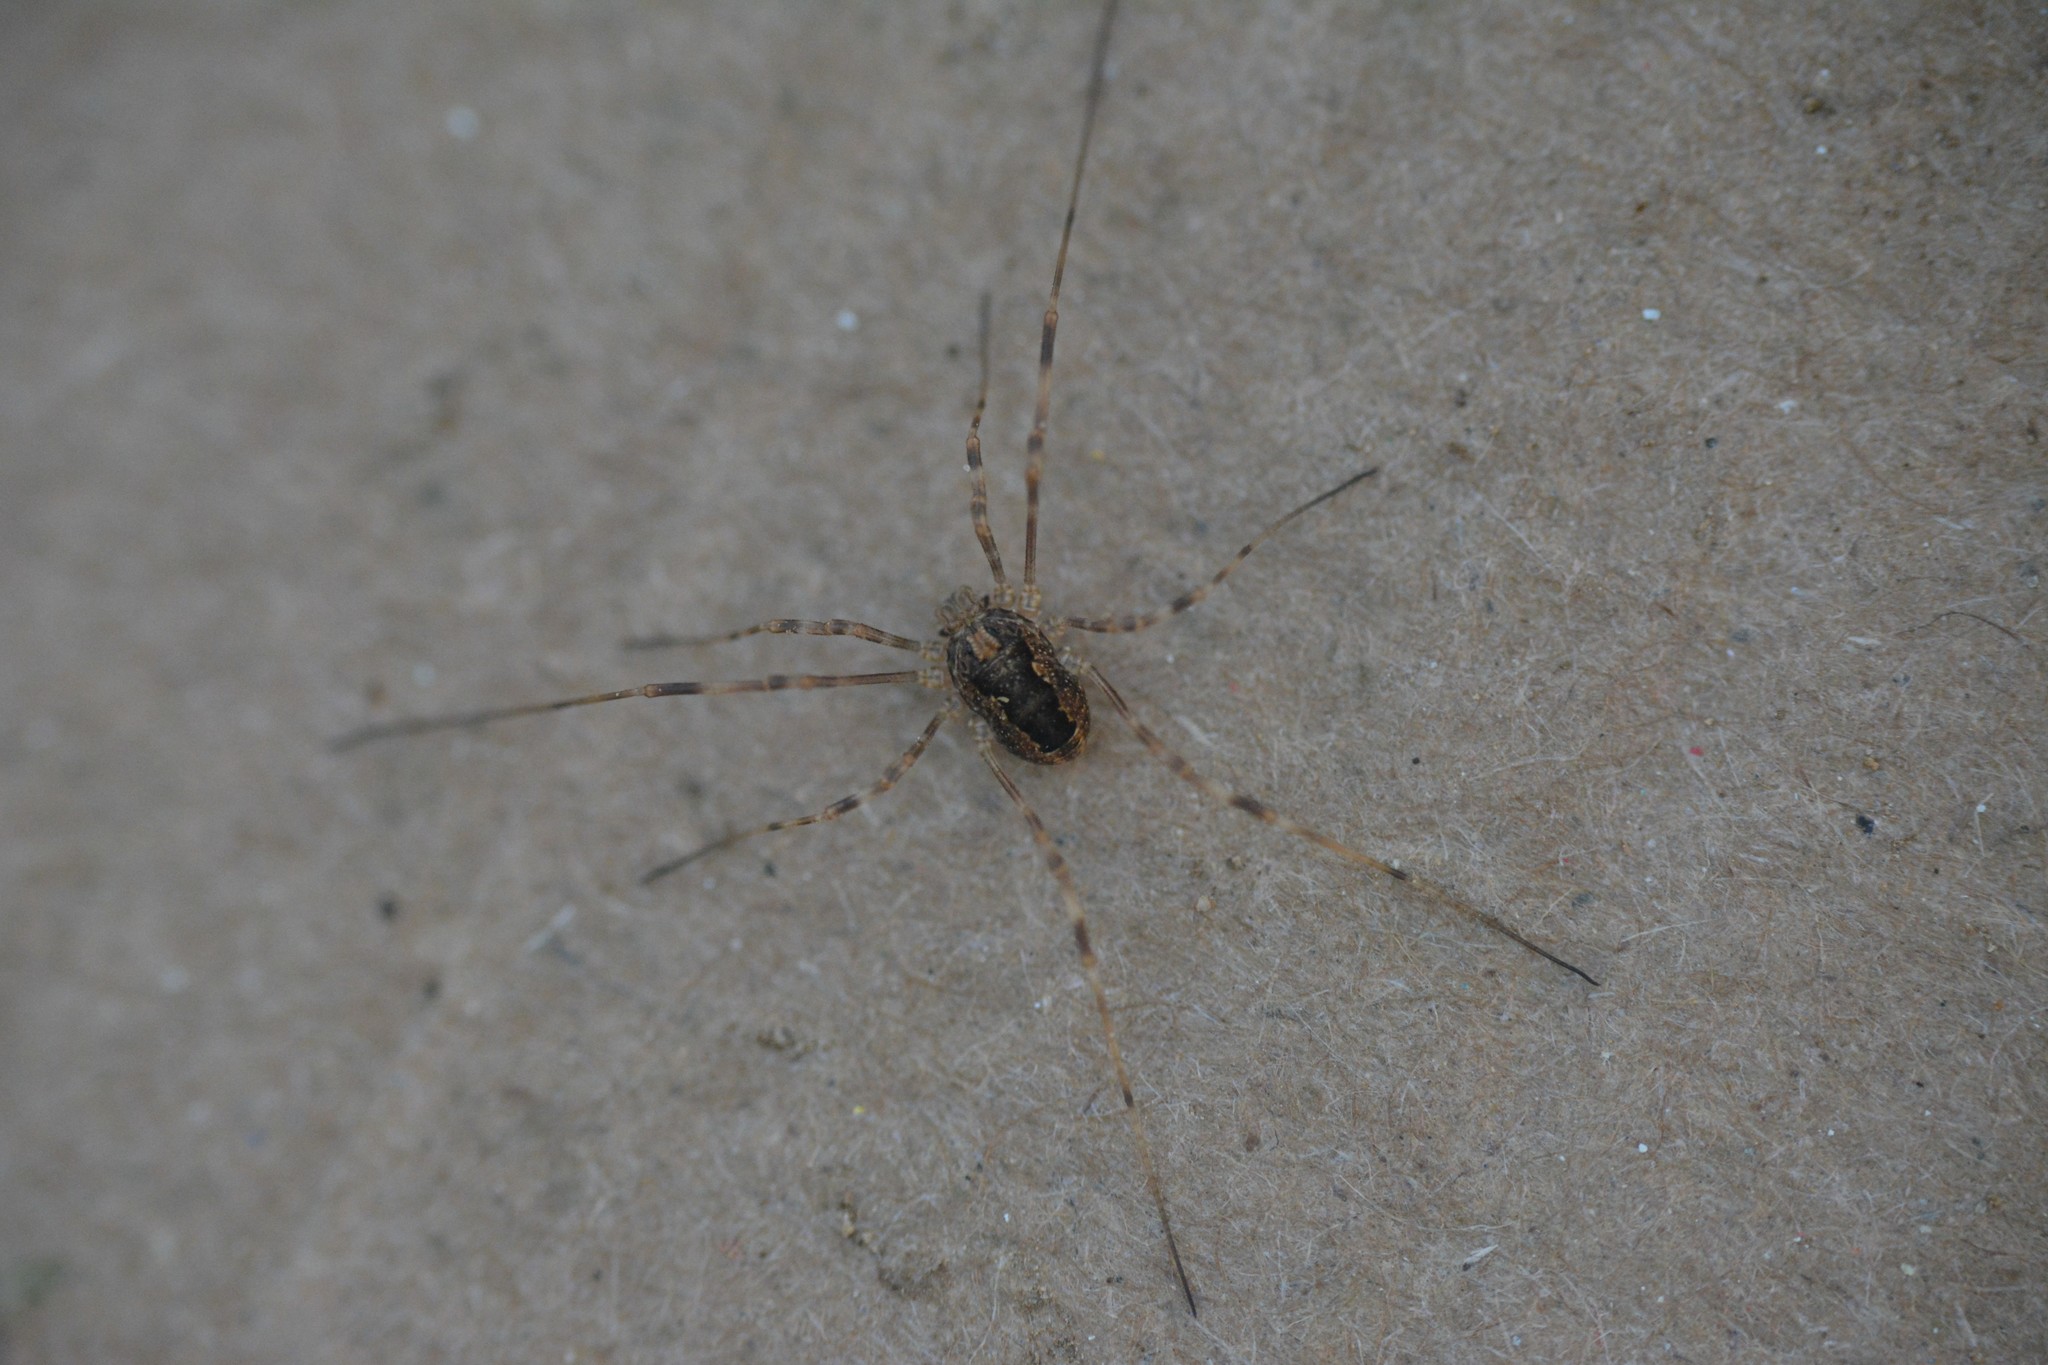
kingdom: Animalia
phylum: Arthropoda
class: Arachnida
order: Opiliones
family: Phalangiidae
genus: Rilaena
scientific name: Rilaena triangularis
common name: Spring harvestman
